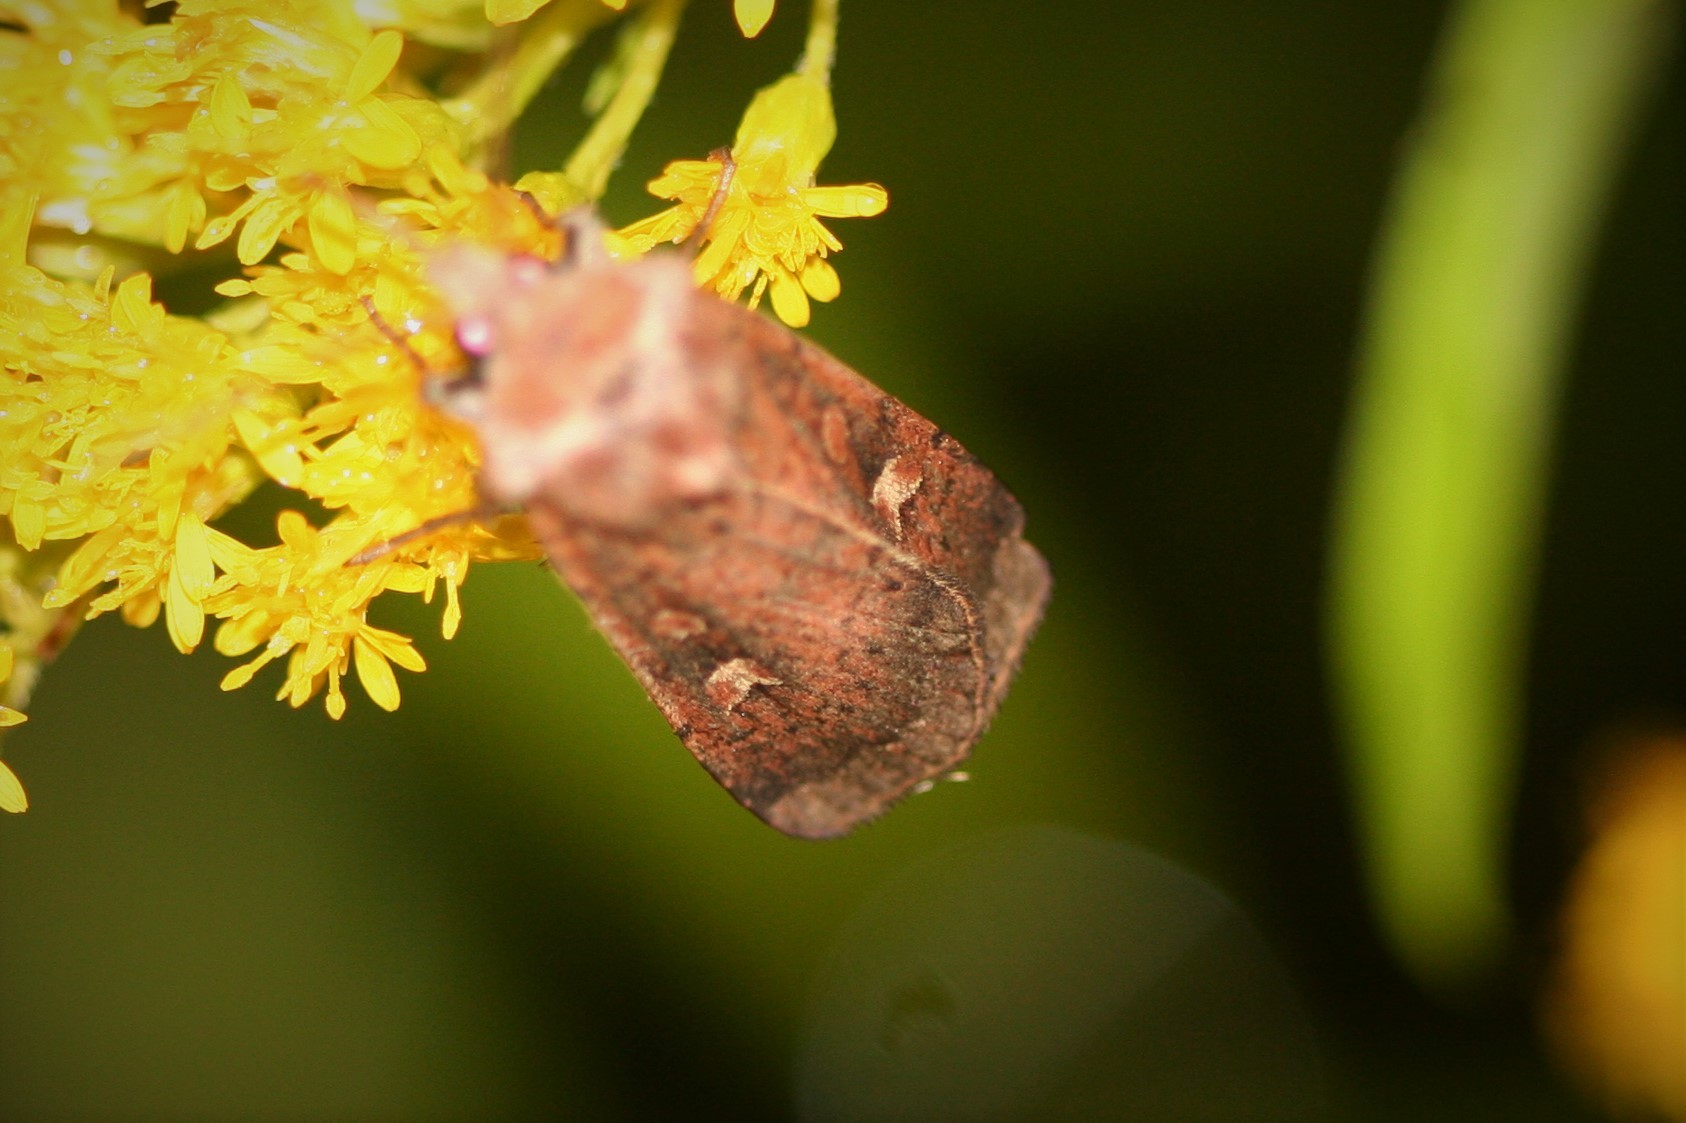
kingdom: Animalia
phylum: Arthropoda
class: Insecta
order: Lepidoptera
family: Noctuidae
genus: Xestia
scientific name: Xestia xanthographa
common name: Square-spot rustic
